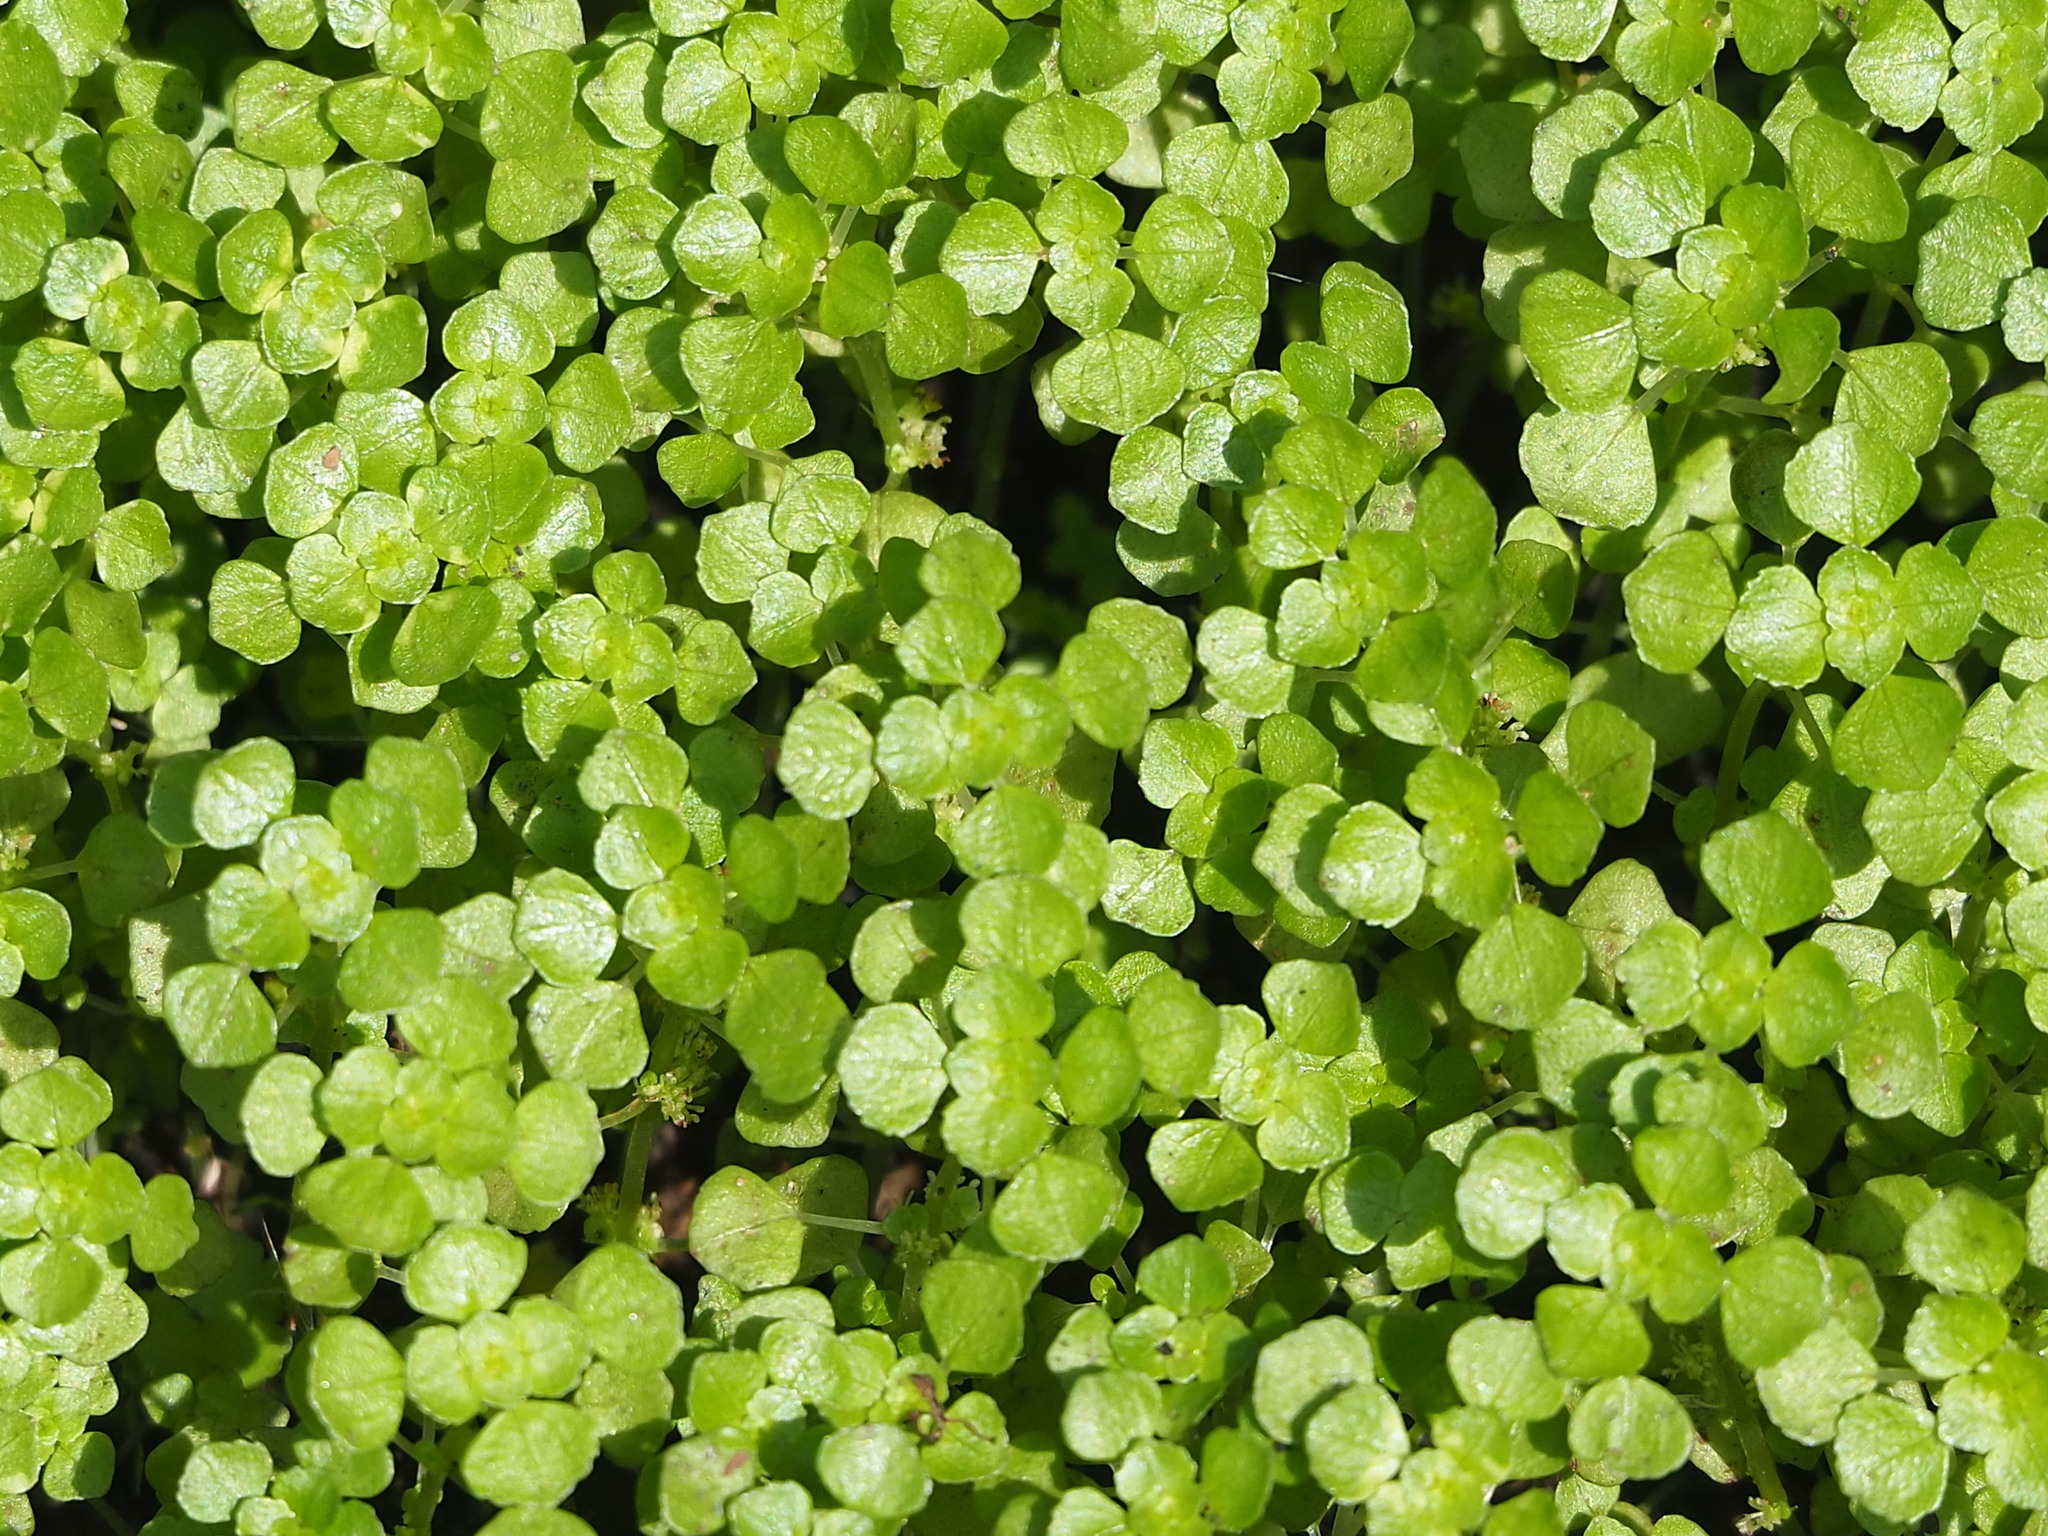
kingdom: Plantae
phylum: Tracheophyta
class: Magnoliopsida
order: Rosales
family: Urticaceae
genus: Pilea
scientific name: Pilea peploides
